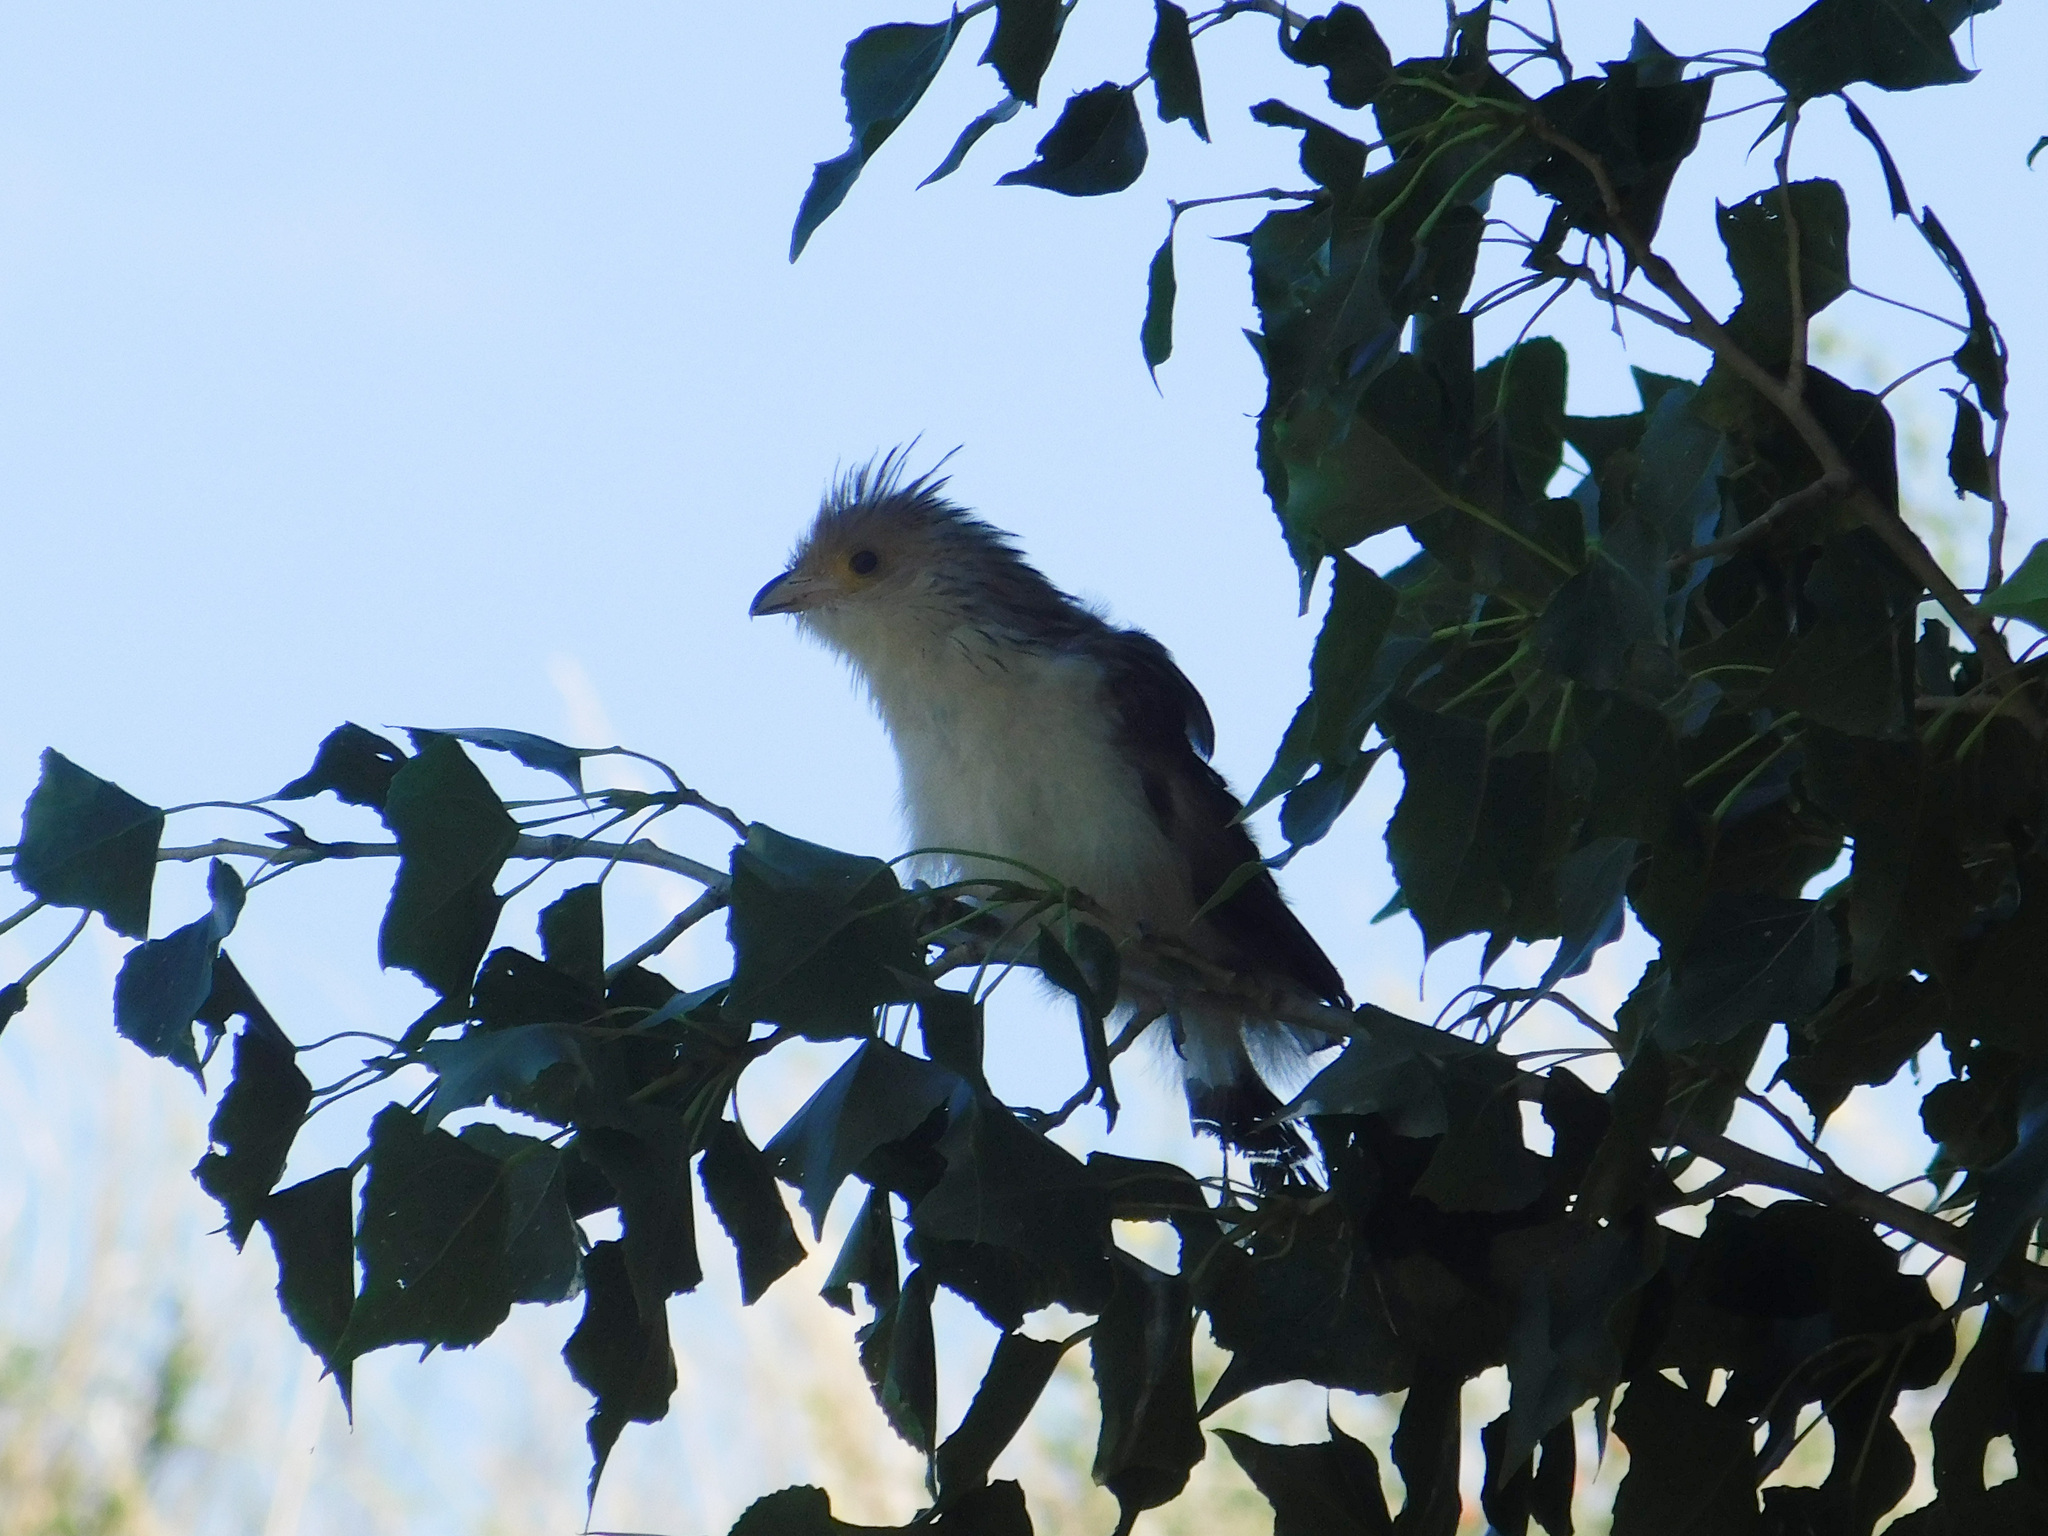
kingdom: Animalia
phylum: Chordata
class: Aves
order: Cuculiformes
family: Cuculidae
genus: Guira
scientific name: Guira guira
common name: Guira cuckoo
